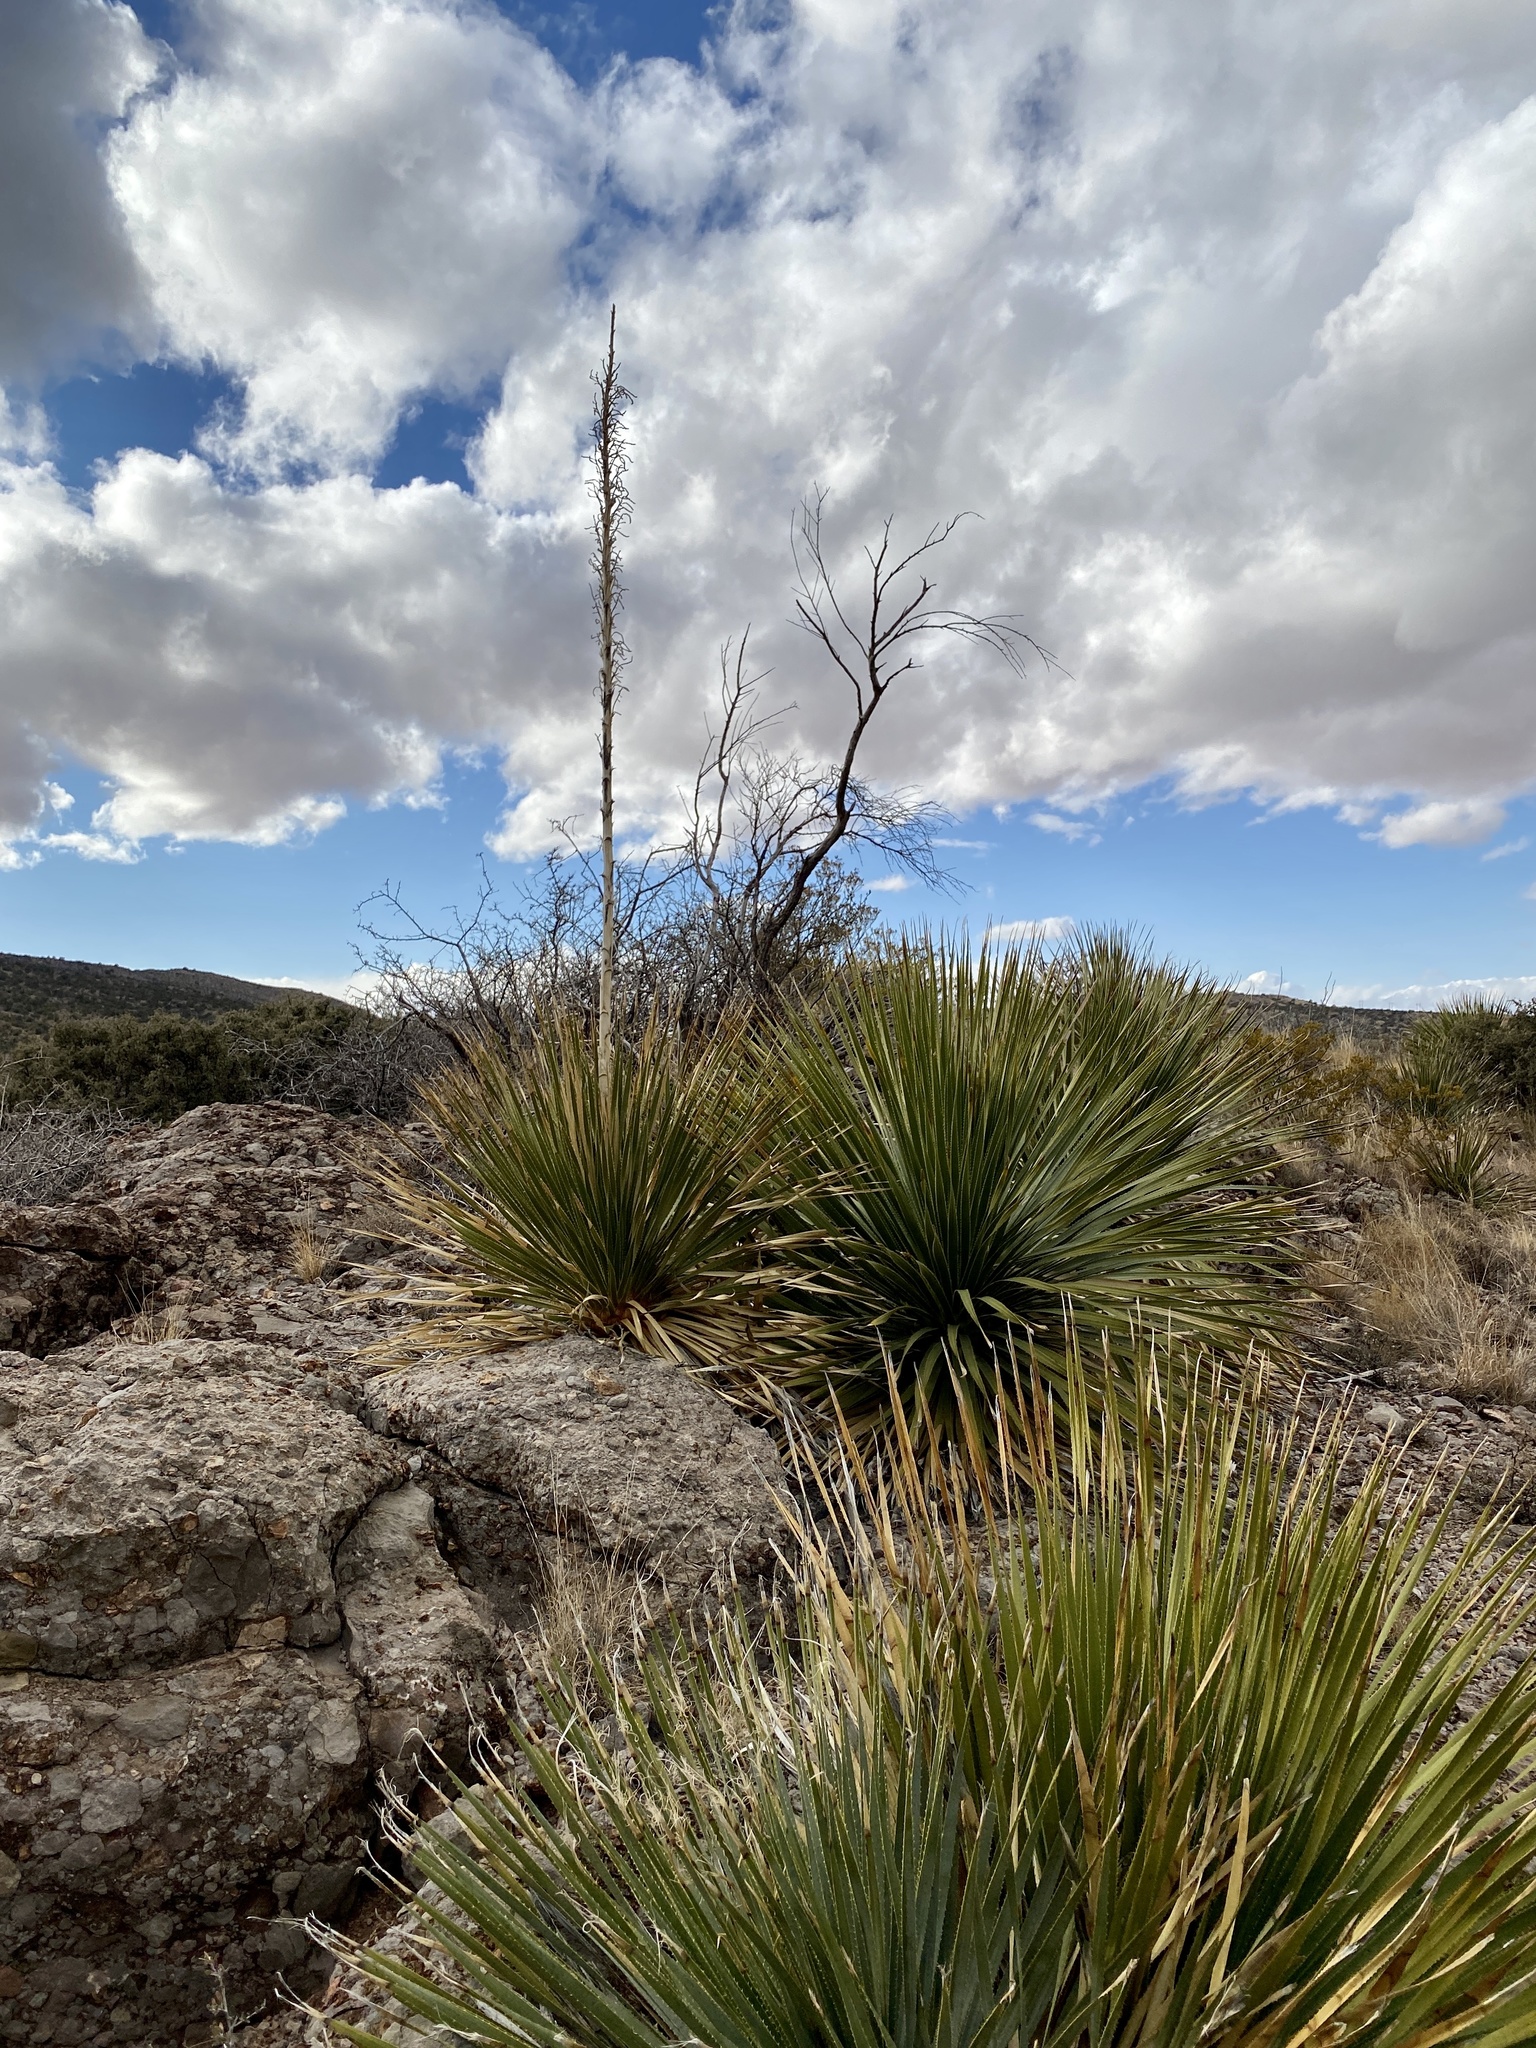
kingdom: Plantae
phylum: Tracheophyta
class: Liliopsida
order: Asparagales
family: Asparagaceae
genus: Dasylirion
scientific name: Dasylirion wheeleri
